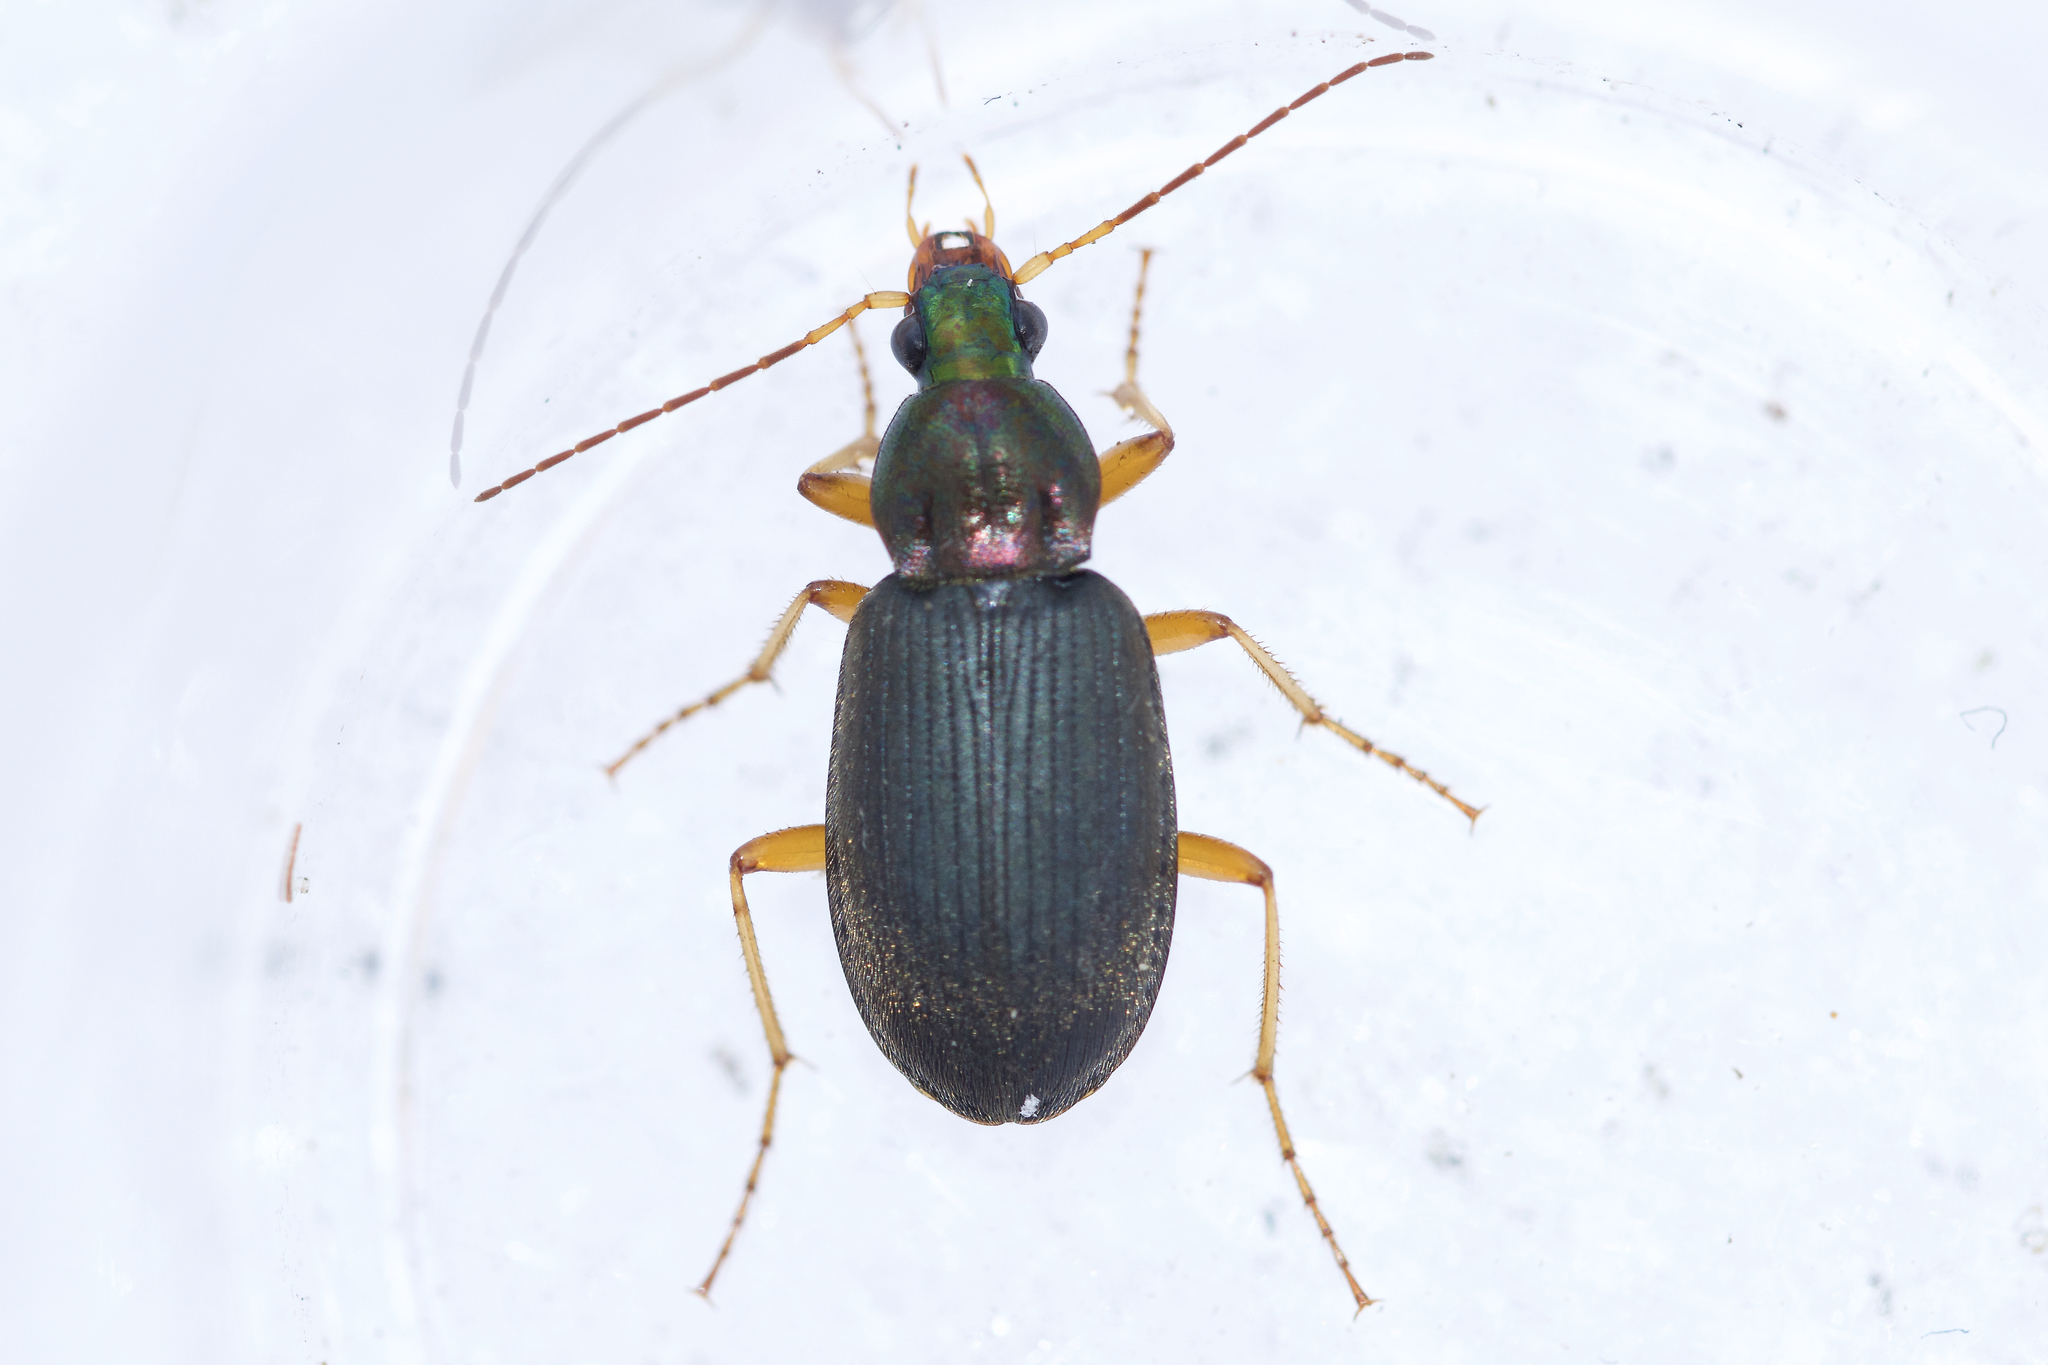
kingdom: Animalia
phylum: Arthropoda
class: Insecta
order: Coleoptera
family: Carabidae
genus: Chlaenius
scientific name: Chlaenius tricolor
